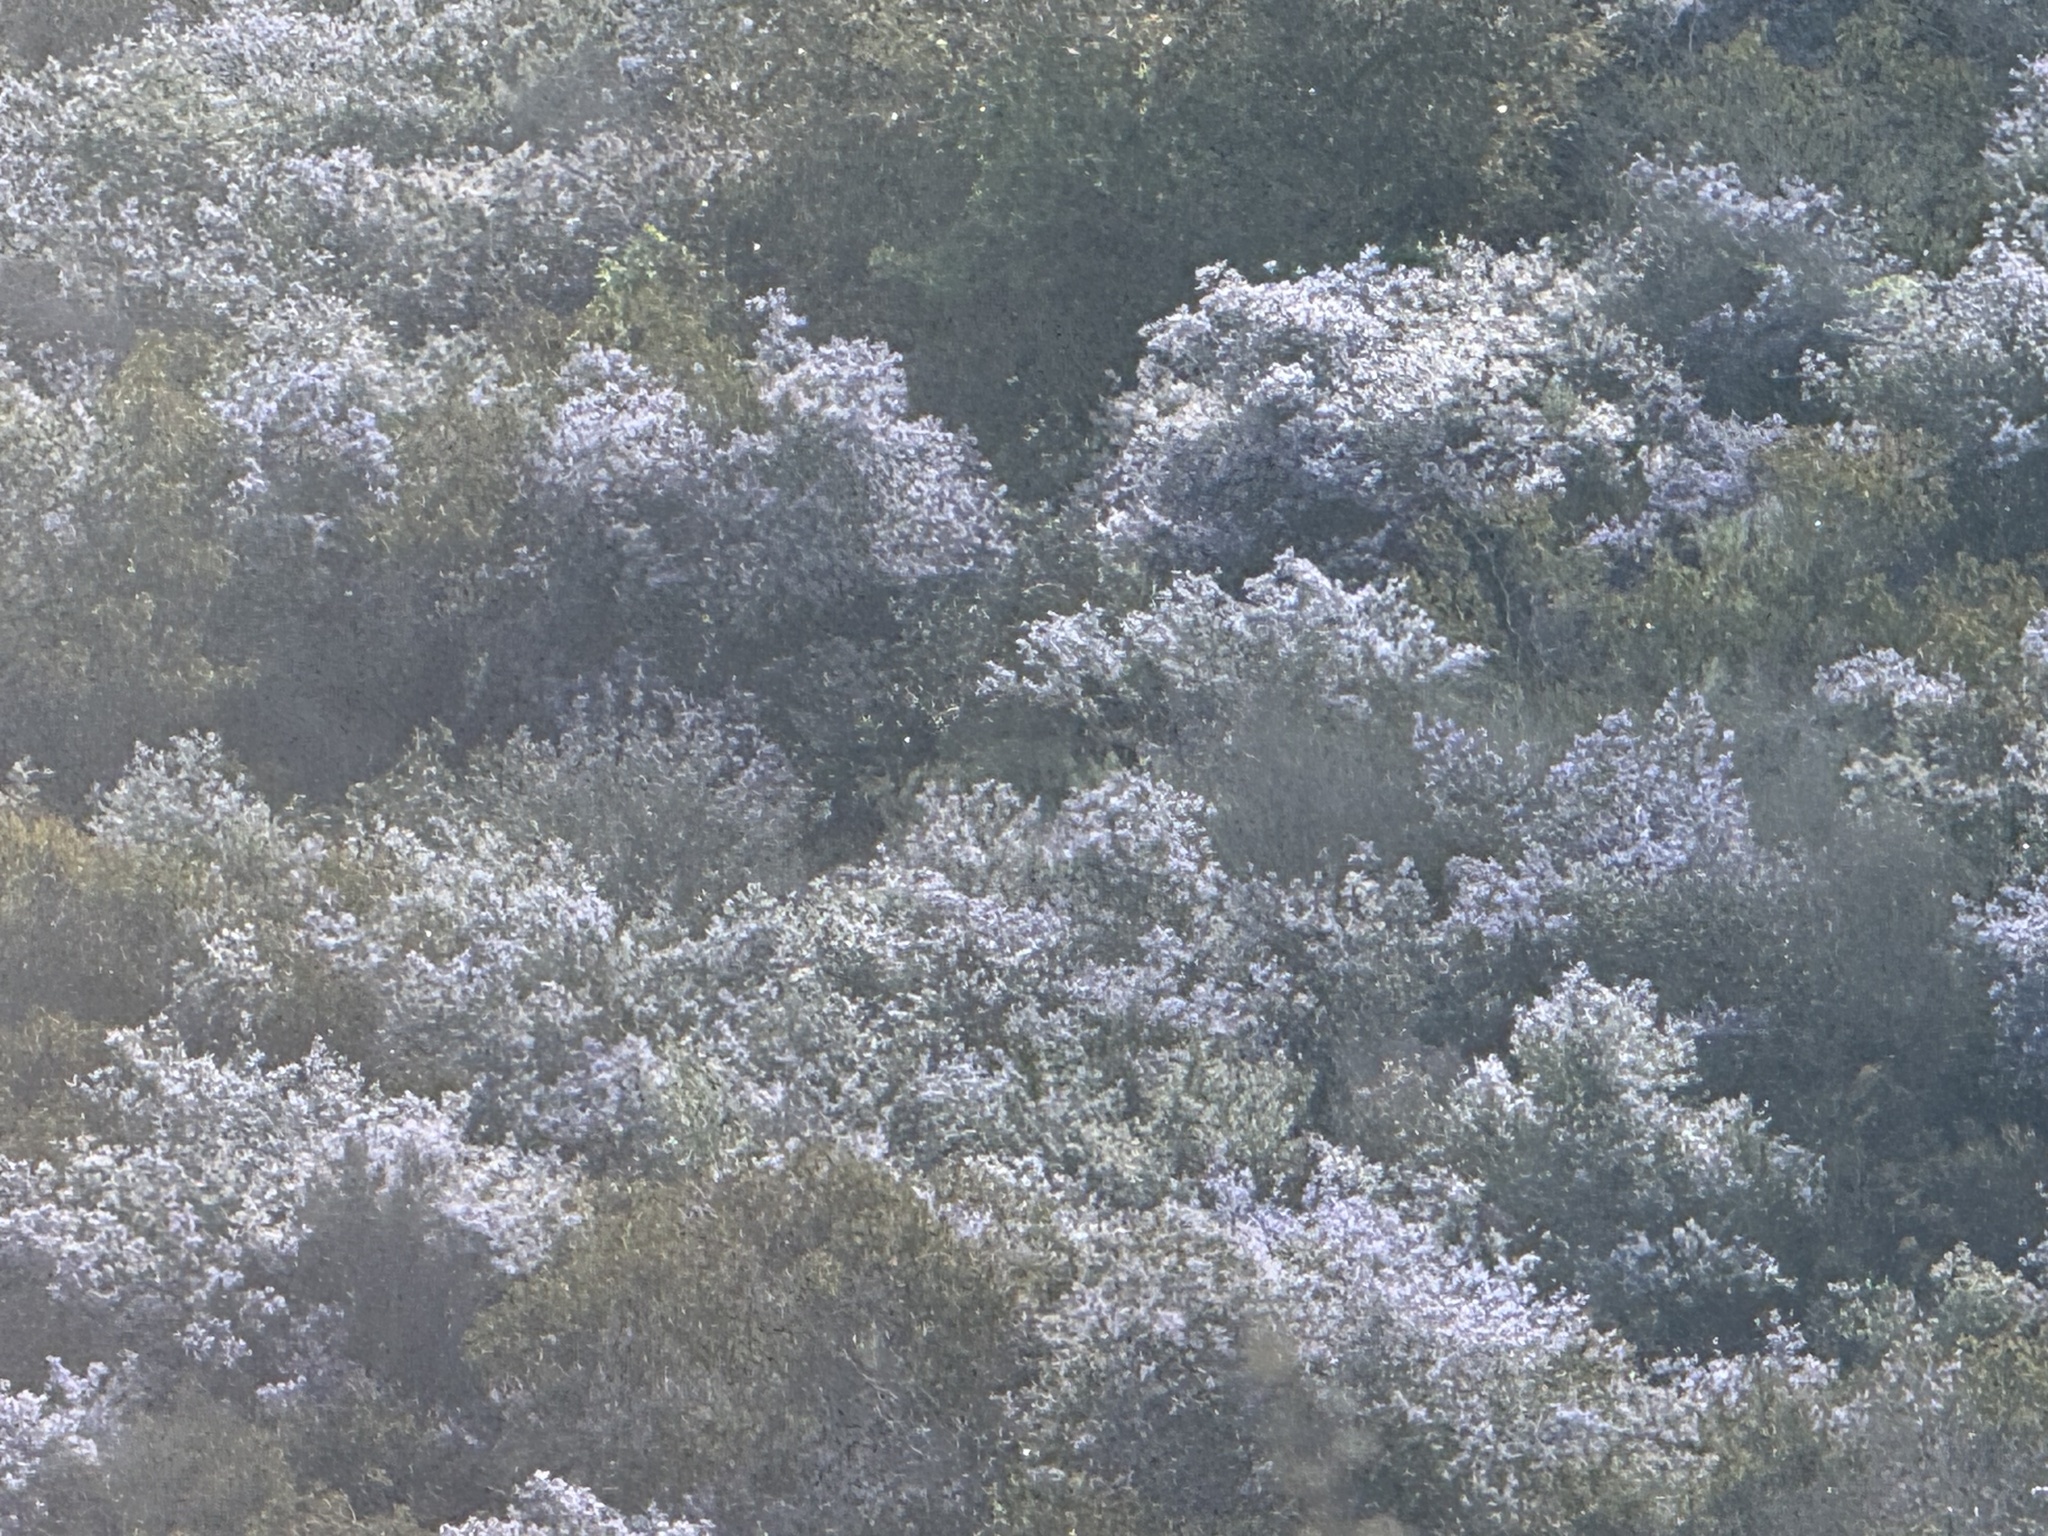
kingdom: Plantae
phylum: Tracheophyta
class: Magnoliopsida
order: Rosales
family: Rhamnaceae
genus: Ceanothus
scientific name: Ceanothus leucodermis
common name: Chaparral whitethorn
